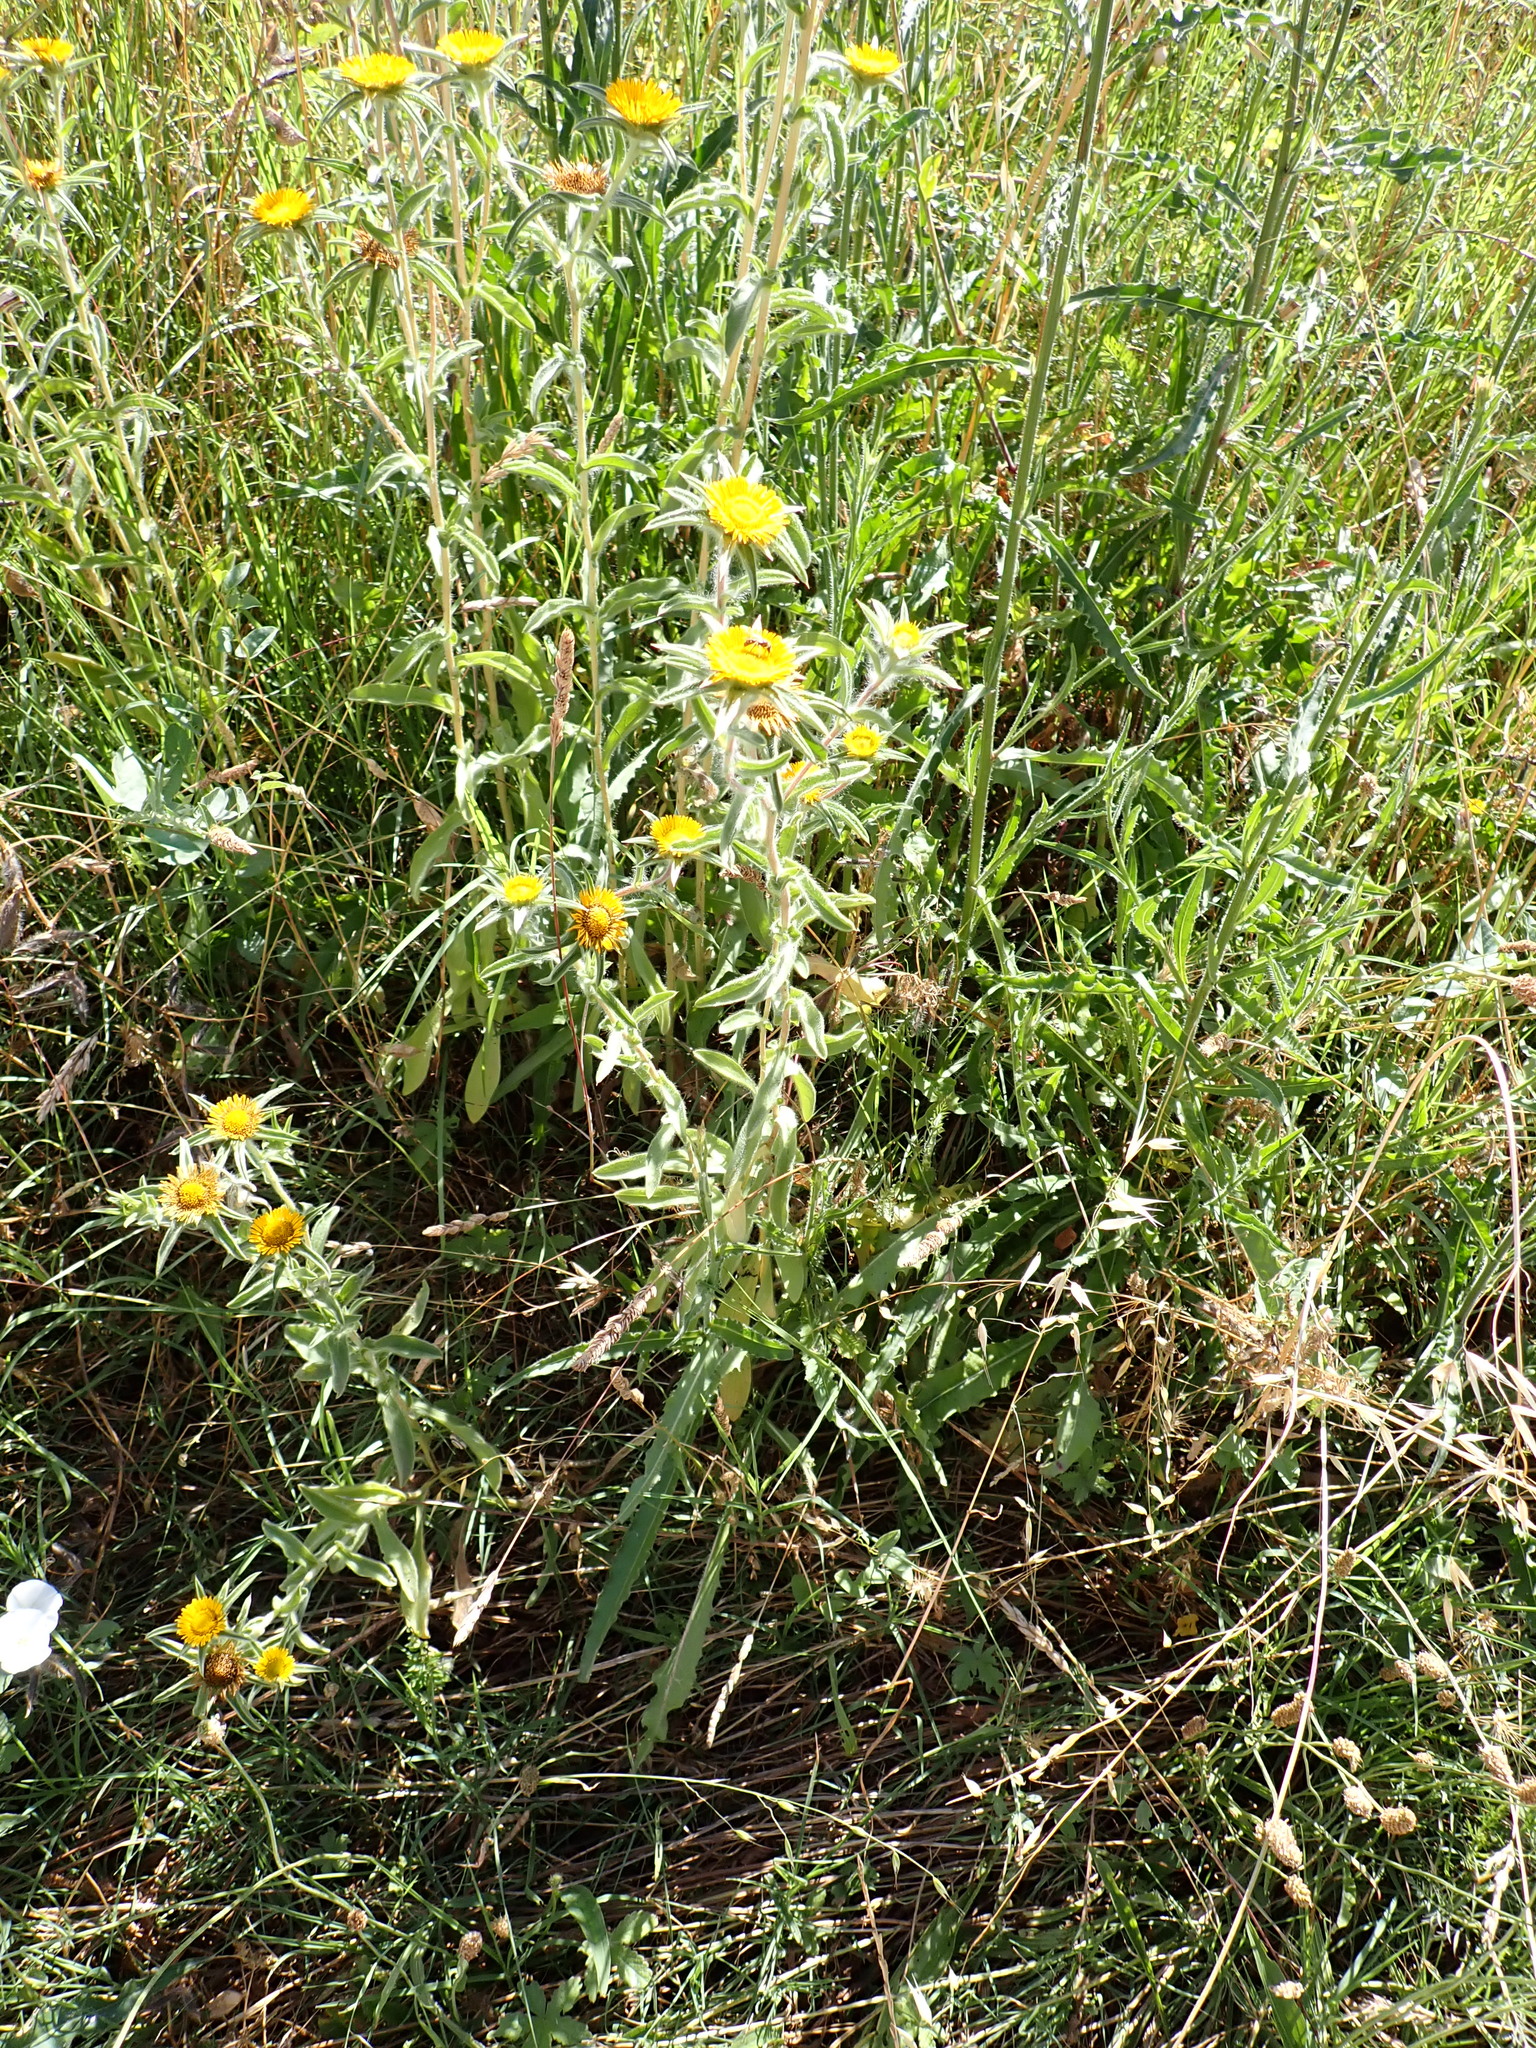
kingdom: Plantae
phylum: Tracheophyta
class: Magnoliopsida
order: Asterales
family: Asteraceae
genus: Pallenis
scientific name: Pallenis spinosa
